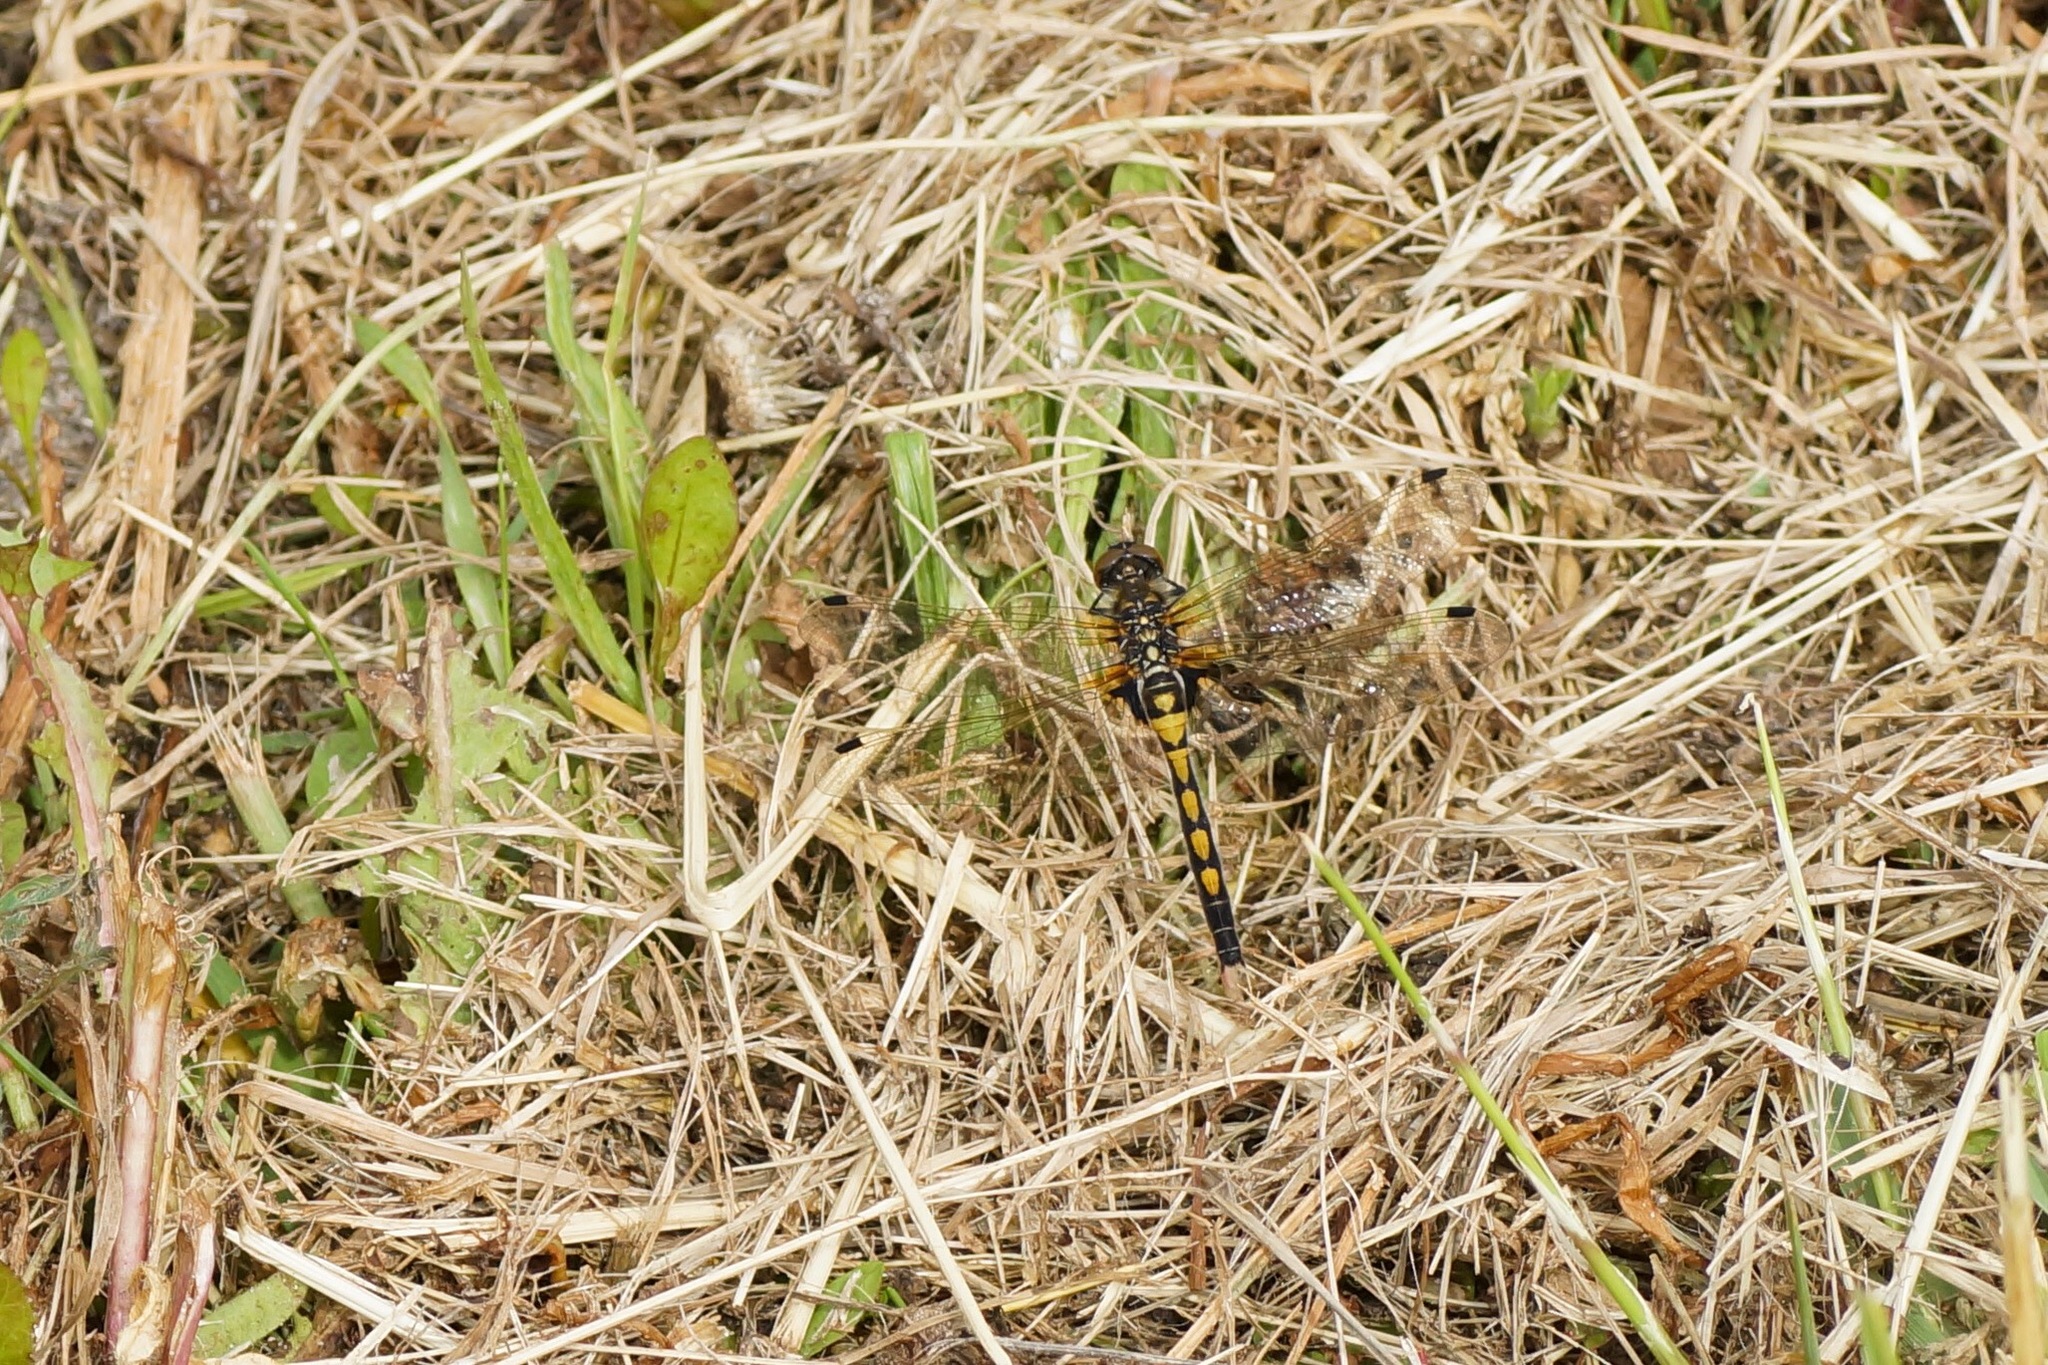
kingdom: Animalia
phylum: Arthropoda
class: Insecta
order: Odonata
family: Libellulidae
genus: Leucorrhinia
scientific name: Leucorrhinia rubicunda
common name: Ruby whiteface
